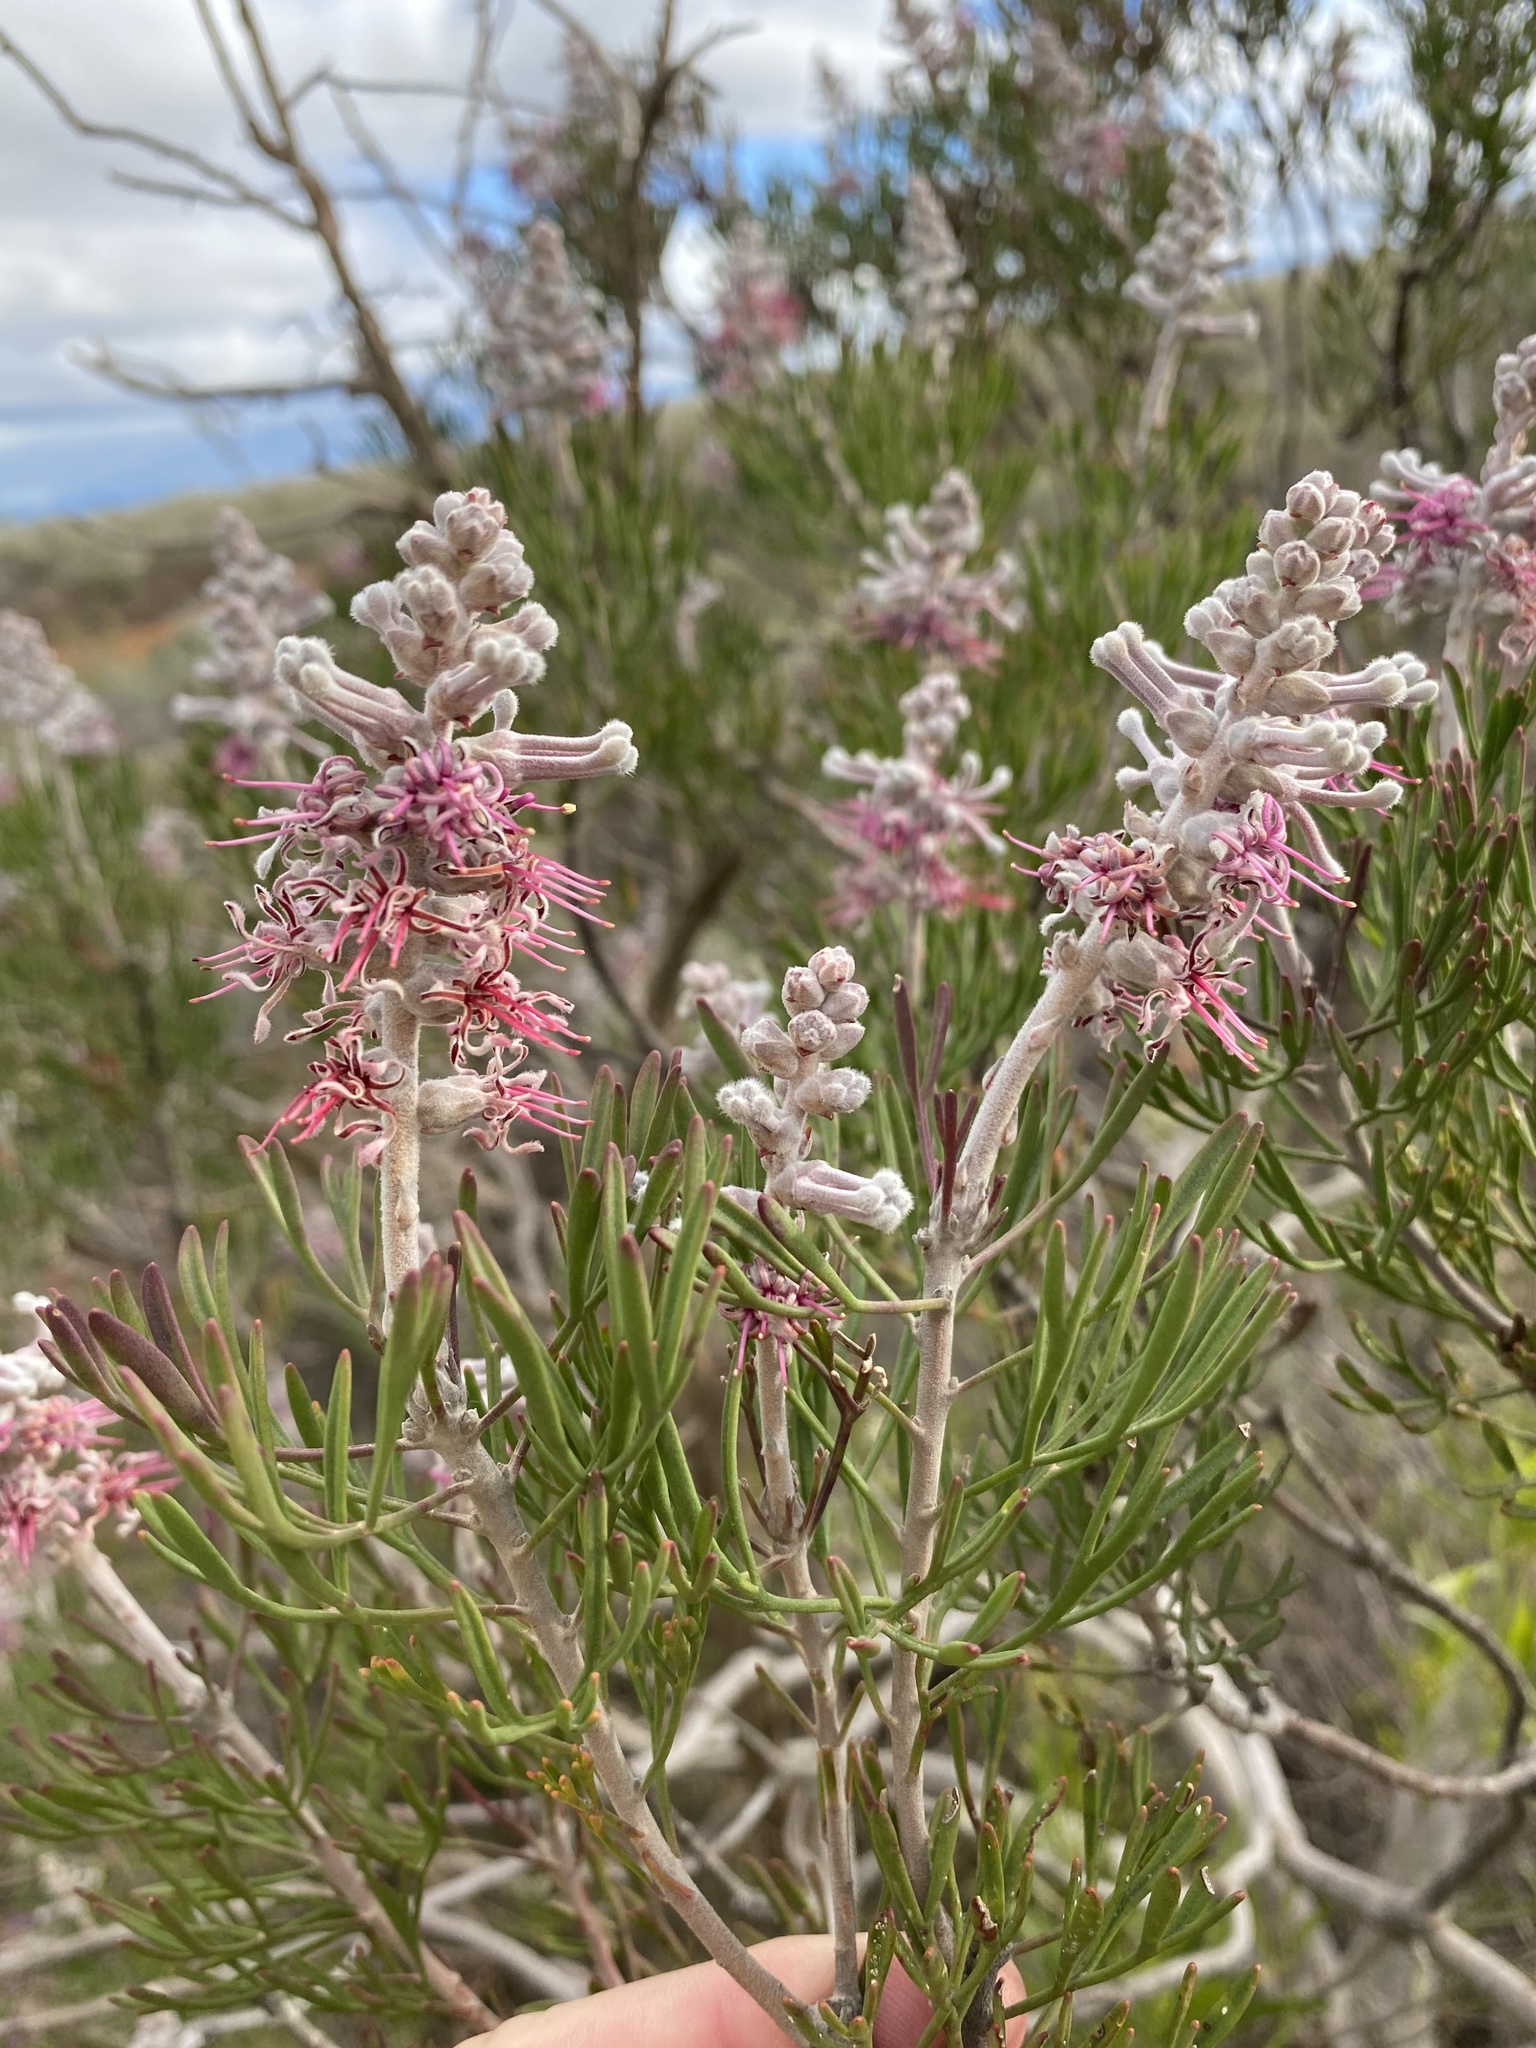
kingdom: Plantae
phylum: Tracheophyta
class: Magnoliopsida
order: Proteales
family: Proteaceae
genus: Paranomus
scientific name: Paranomus dispersus
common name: Long-head sceptre
